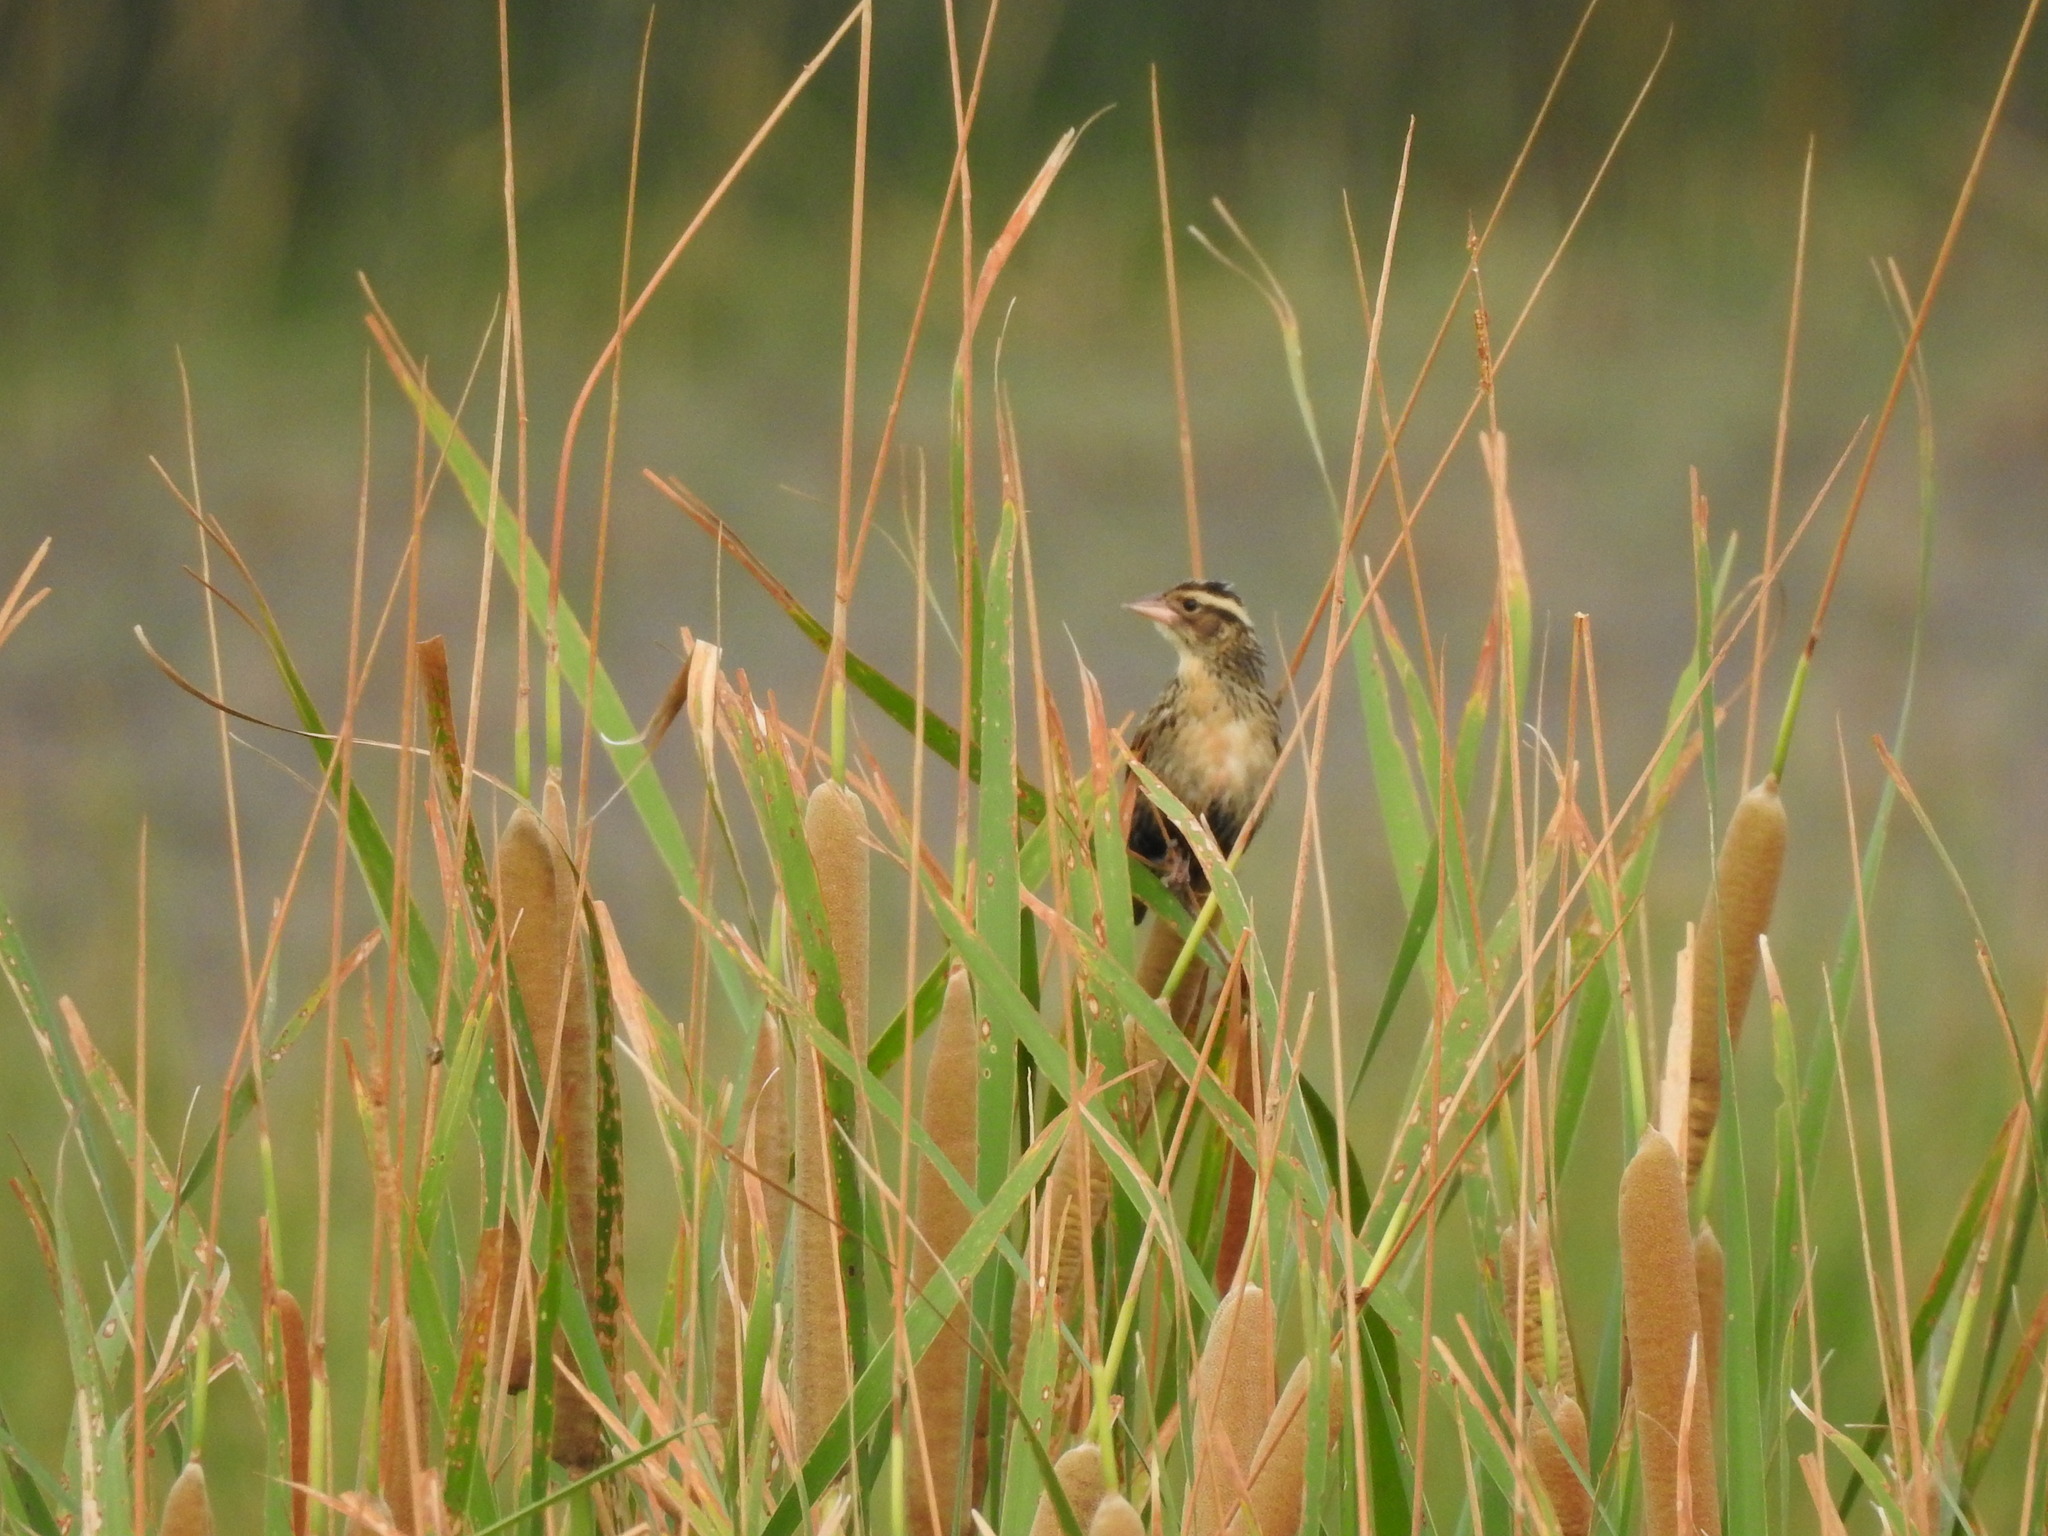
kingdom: Animalia
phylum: Chordata
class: Aves
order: Passeriformes
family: Icteridae
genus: Sturnella
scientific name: Sturnella superciliaris
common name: White-browed blackbird
